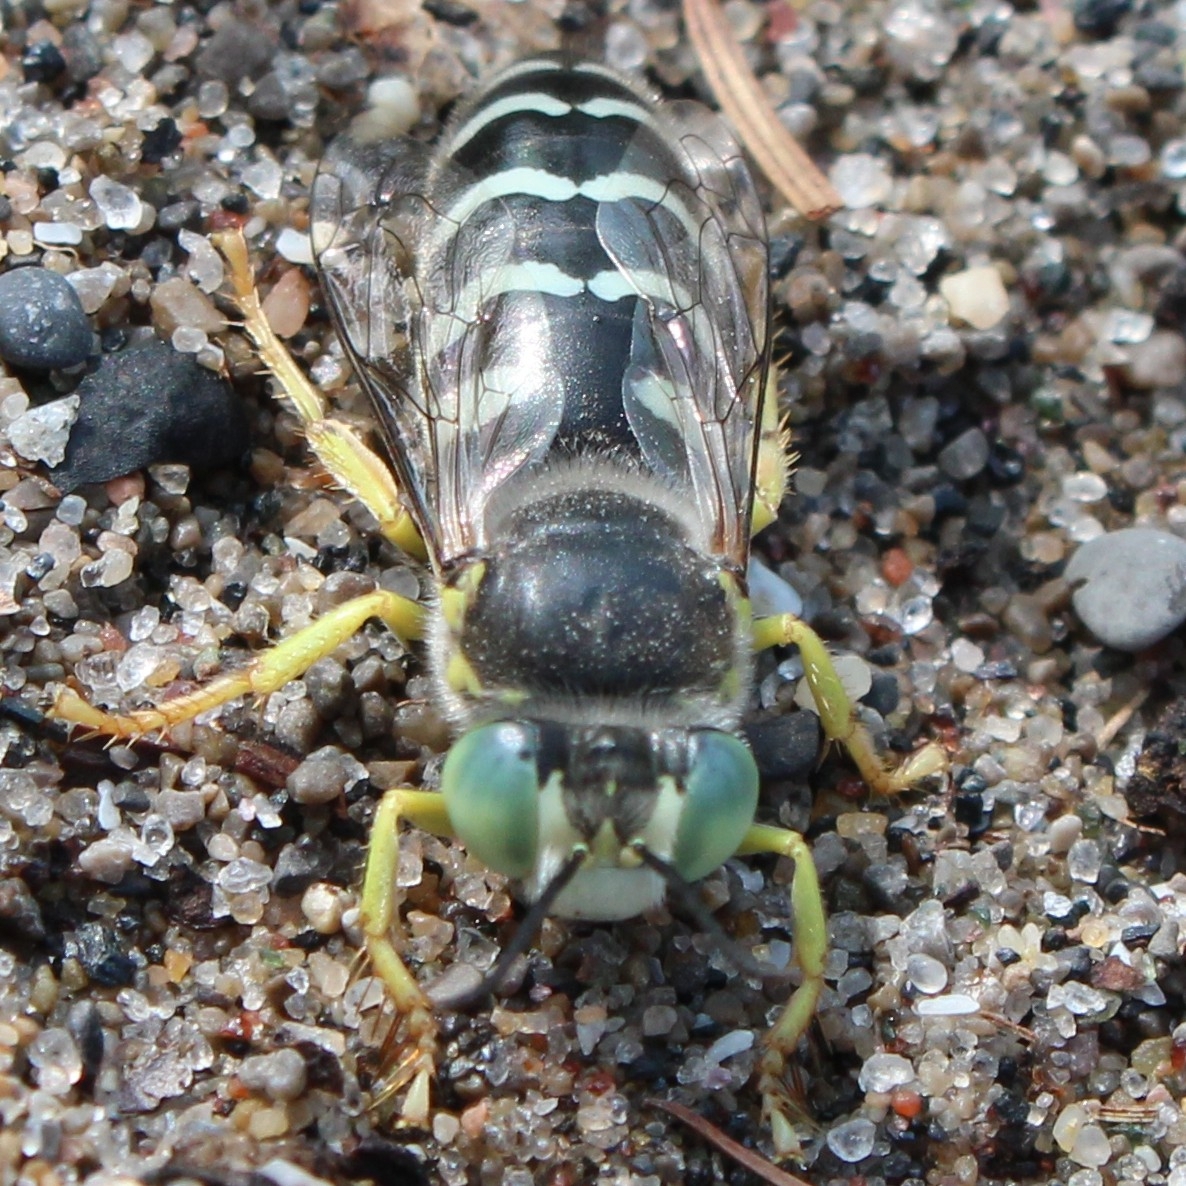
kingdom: Animalia
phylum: Arthropoda
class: Insecta
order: Hymenoptera
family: Crabronidae
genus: Bembix
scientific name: Bembix americana
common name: American sand wasp
